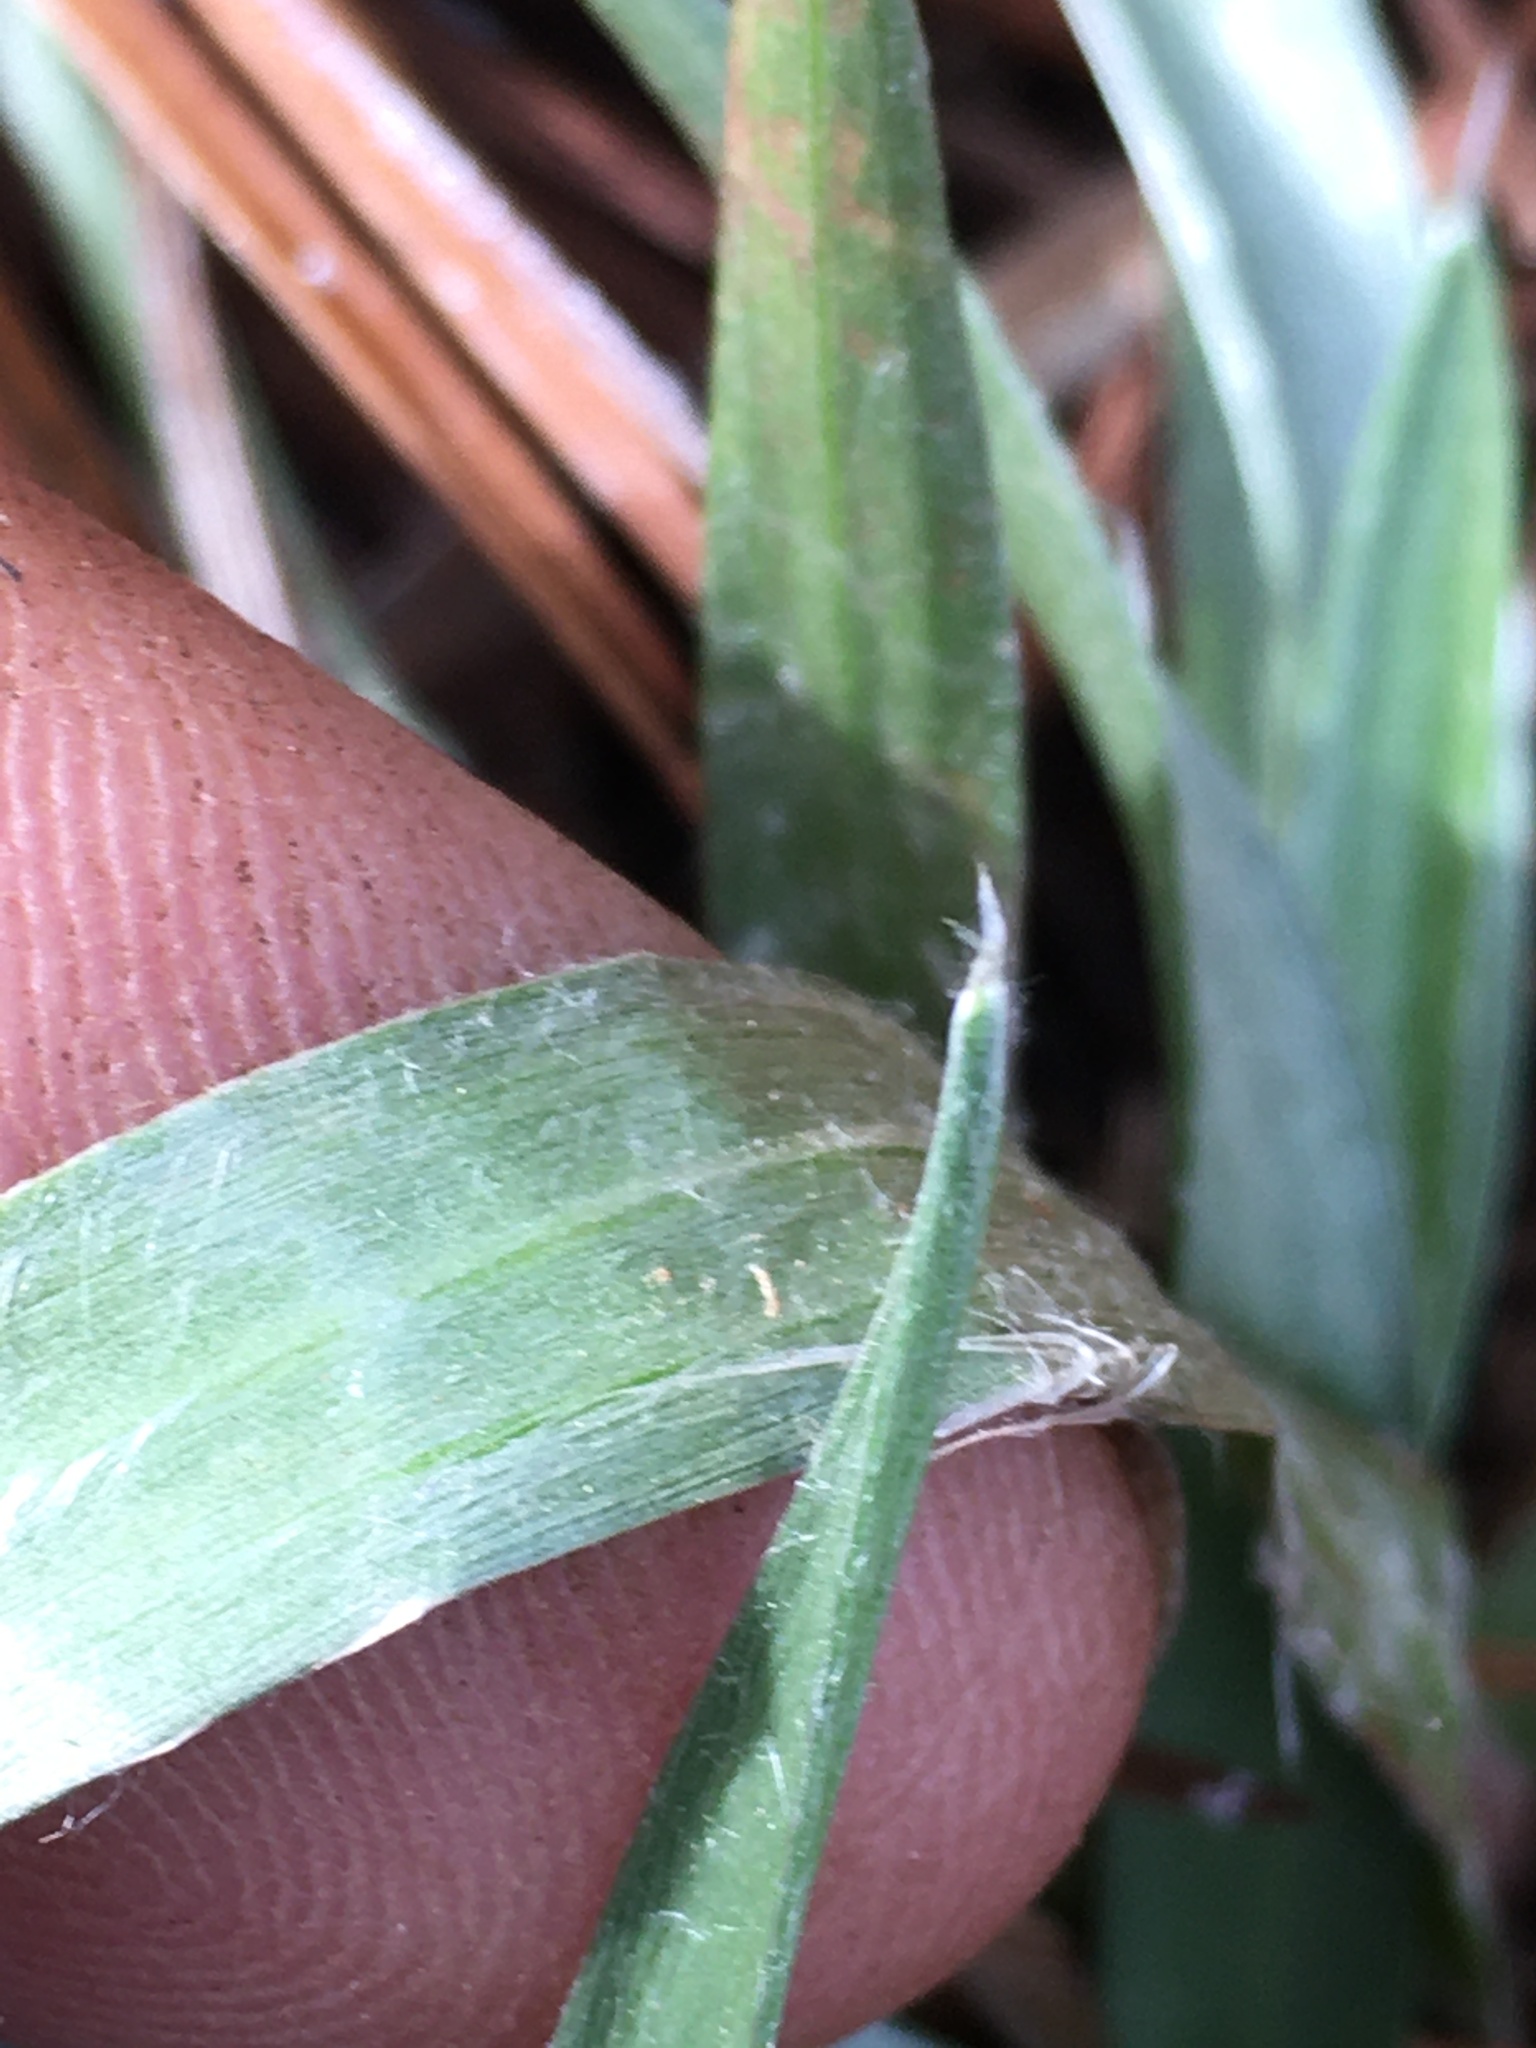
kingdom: Plantae
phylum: Tracheophyta
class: Magnoliopsida
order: Asterales
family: Asteraceae
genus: Pityopsis
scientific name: Pityopsis aspera
